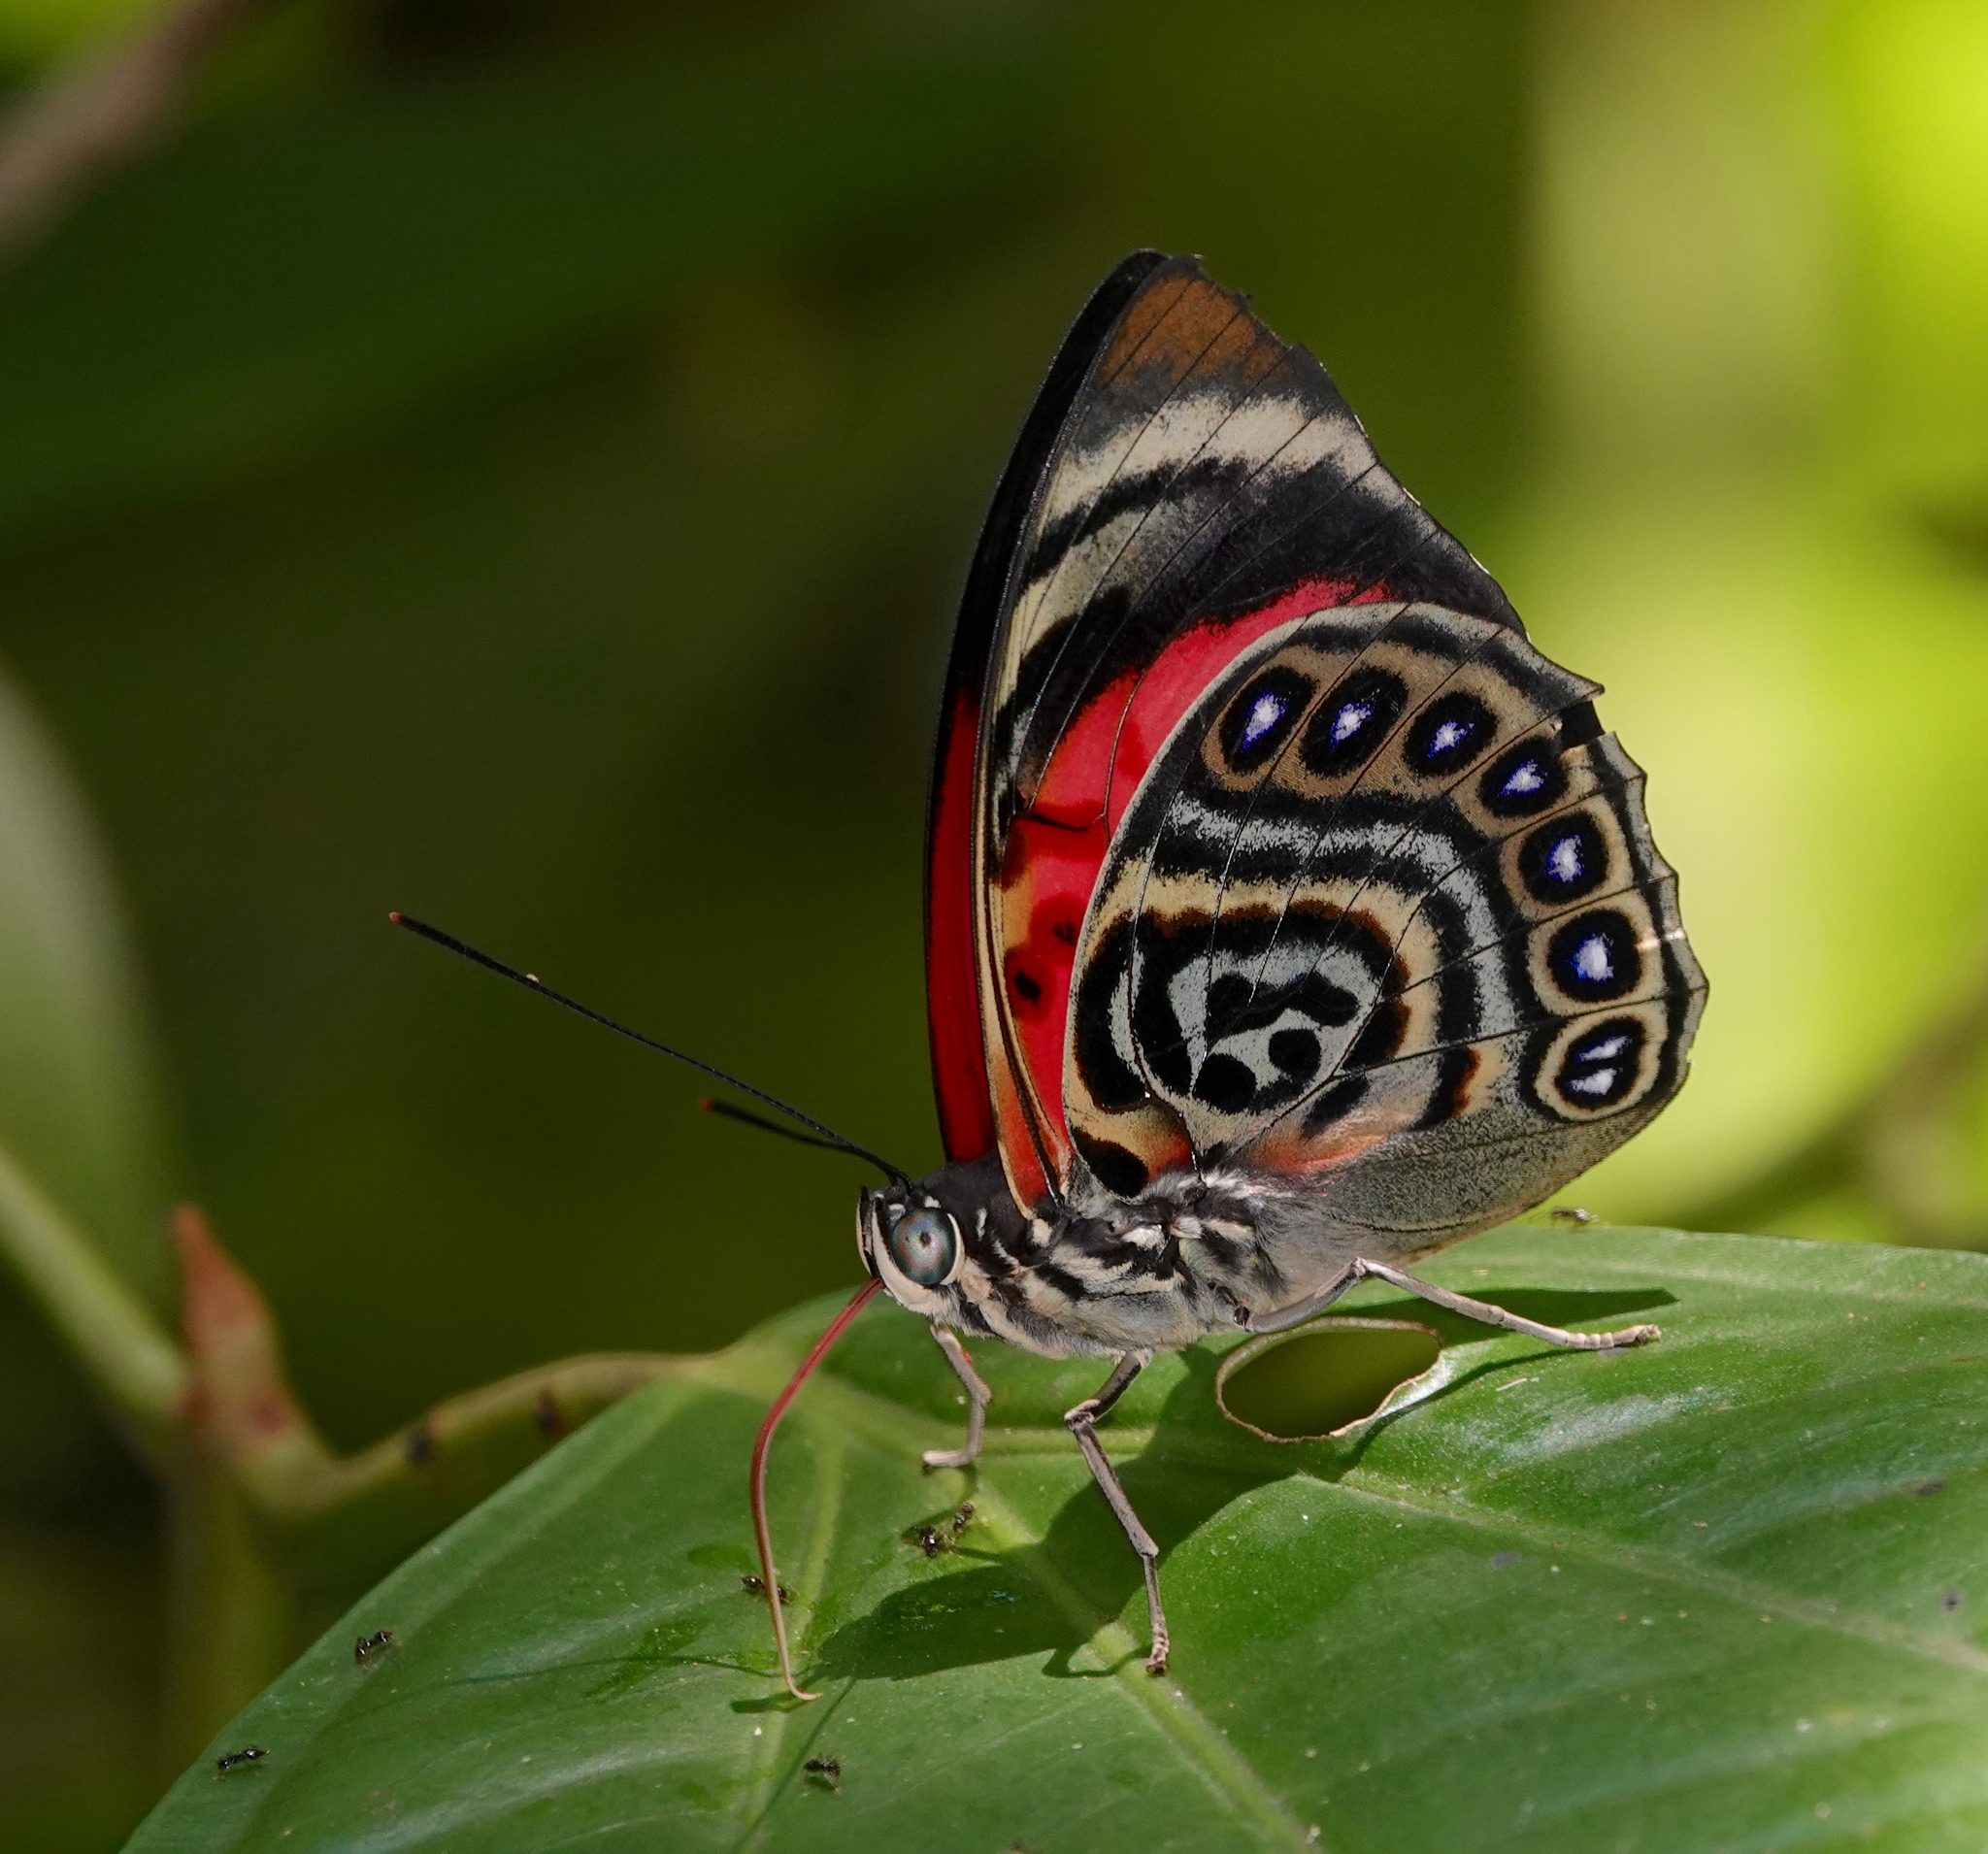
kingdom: Animalia
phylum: Arthropoda
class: Insecta
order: Lepidoptera
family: Nymphalidae
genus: Prepona
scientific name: Prepona claudina
